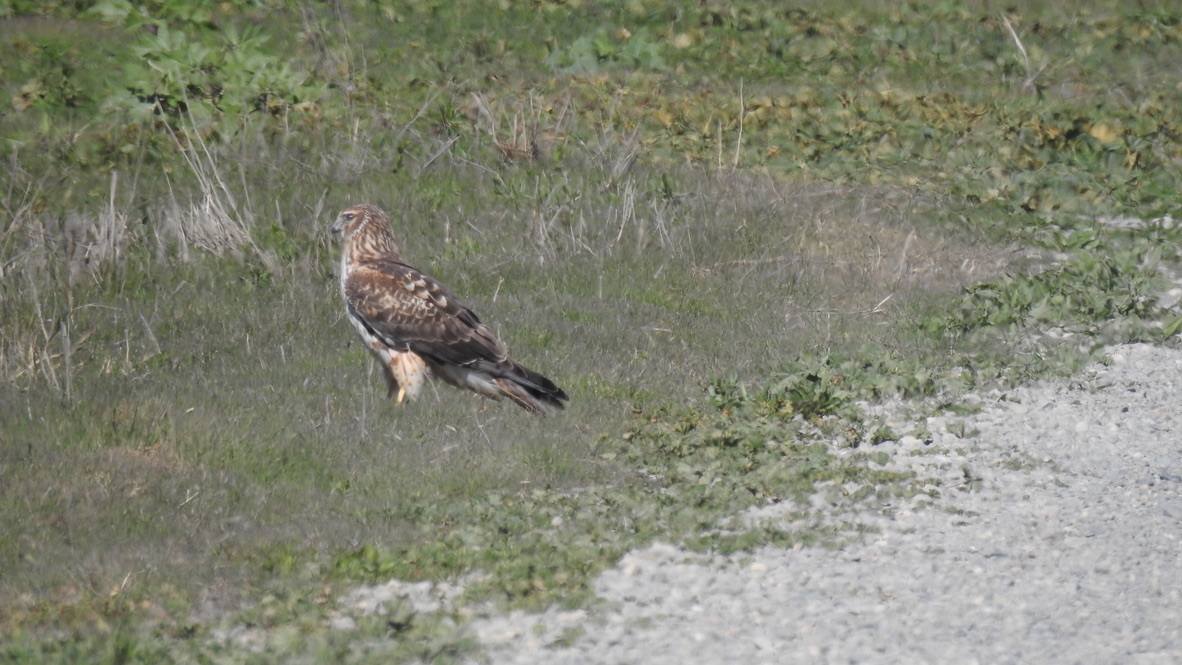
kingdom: Animalia
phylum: Chordata
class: Aves
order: Accipitriformes
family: Accipitridae
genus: Circus
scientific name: Circus cyaneus
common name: Hen harrier
